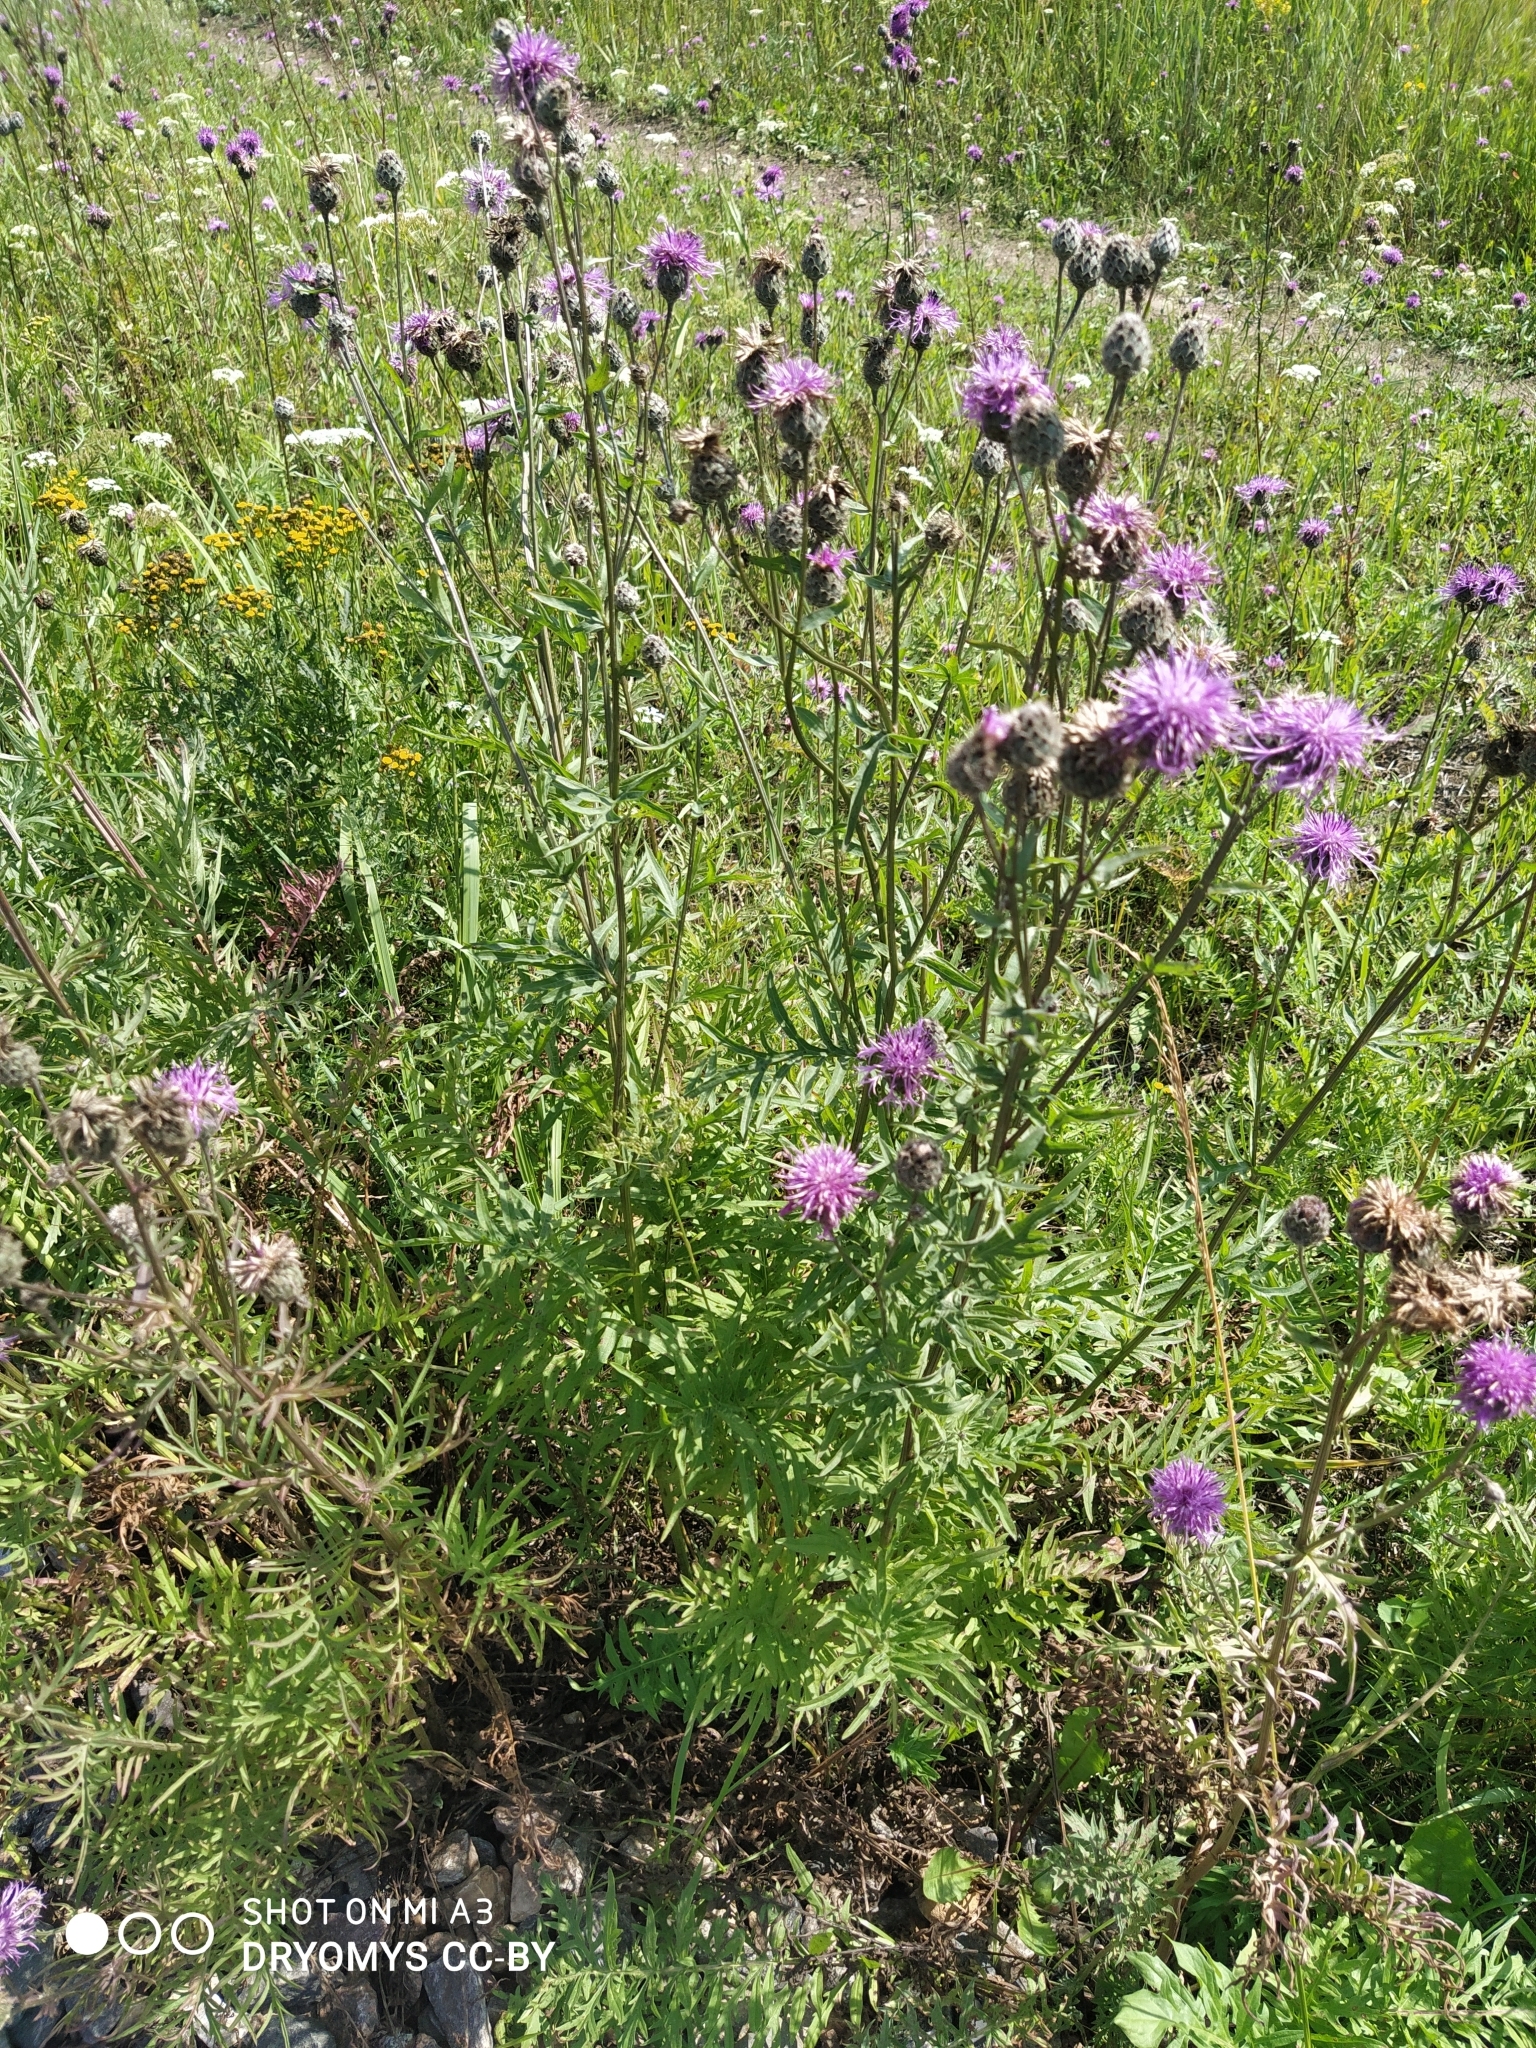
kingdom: Plantae
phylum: Tracheophyta
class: Magnoliopsida
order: Asterales
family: Asteraceae
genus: Centaurea
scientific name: Centaurea scabiosa
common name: Greater knapweed
